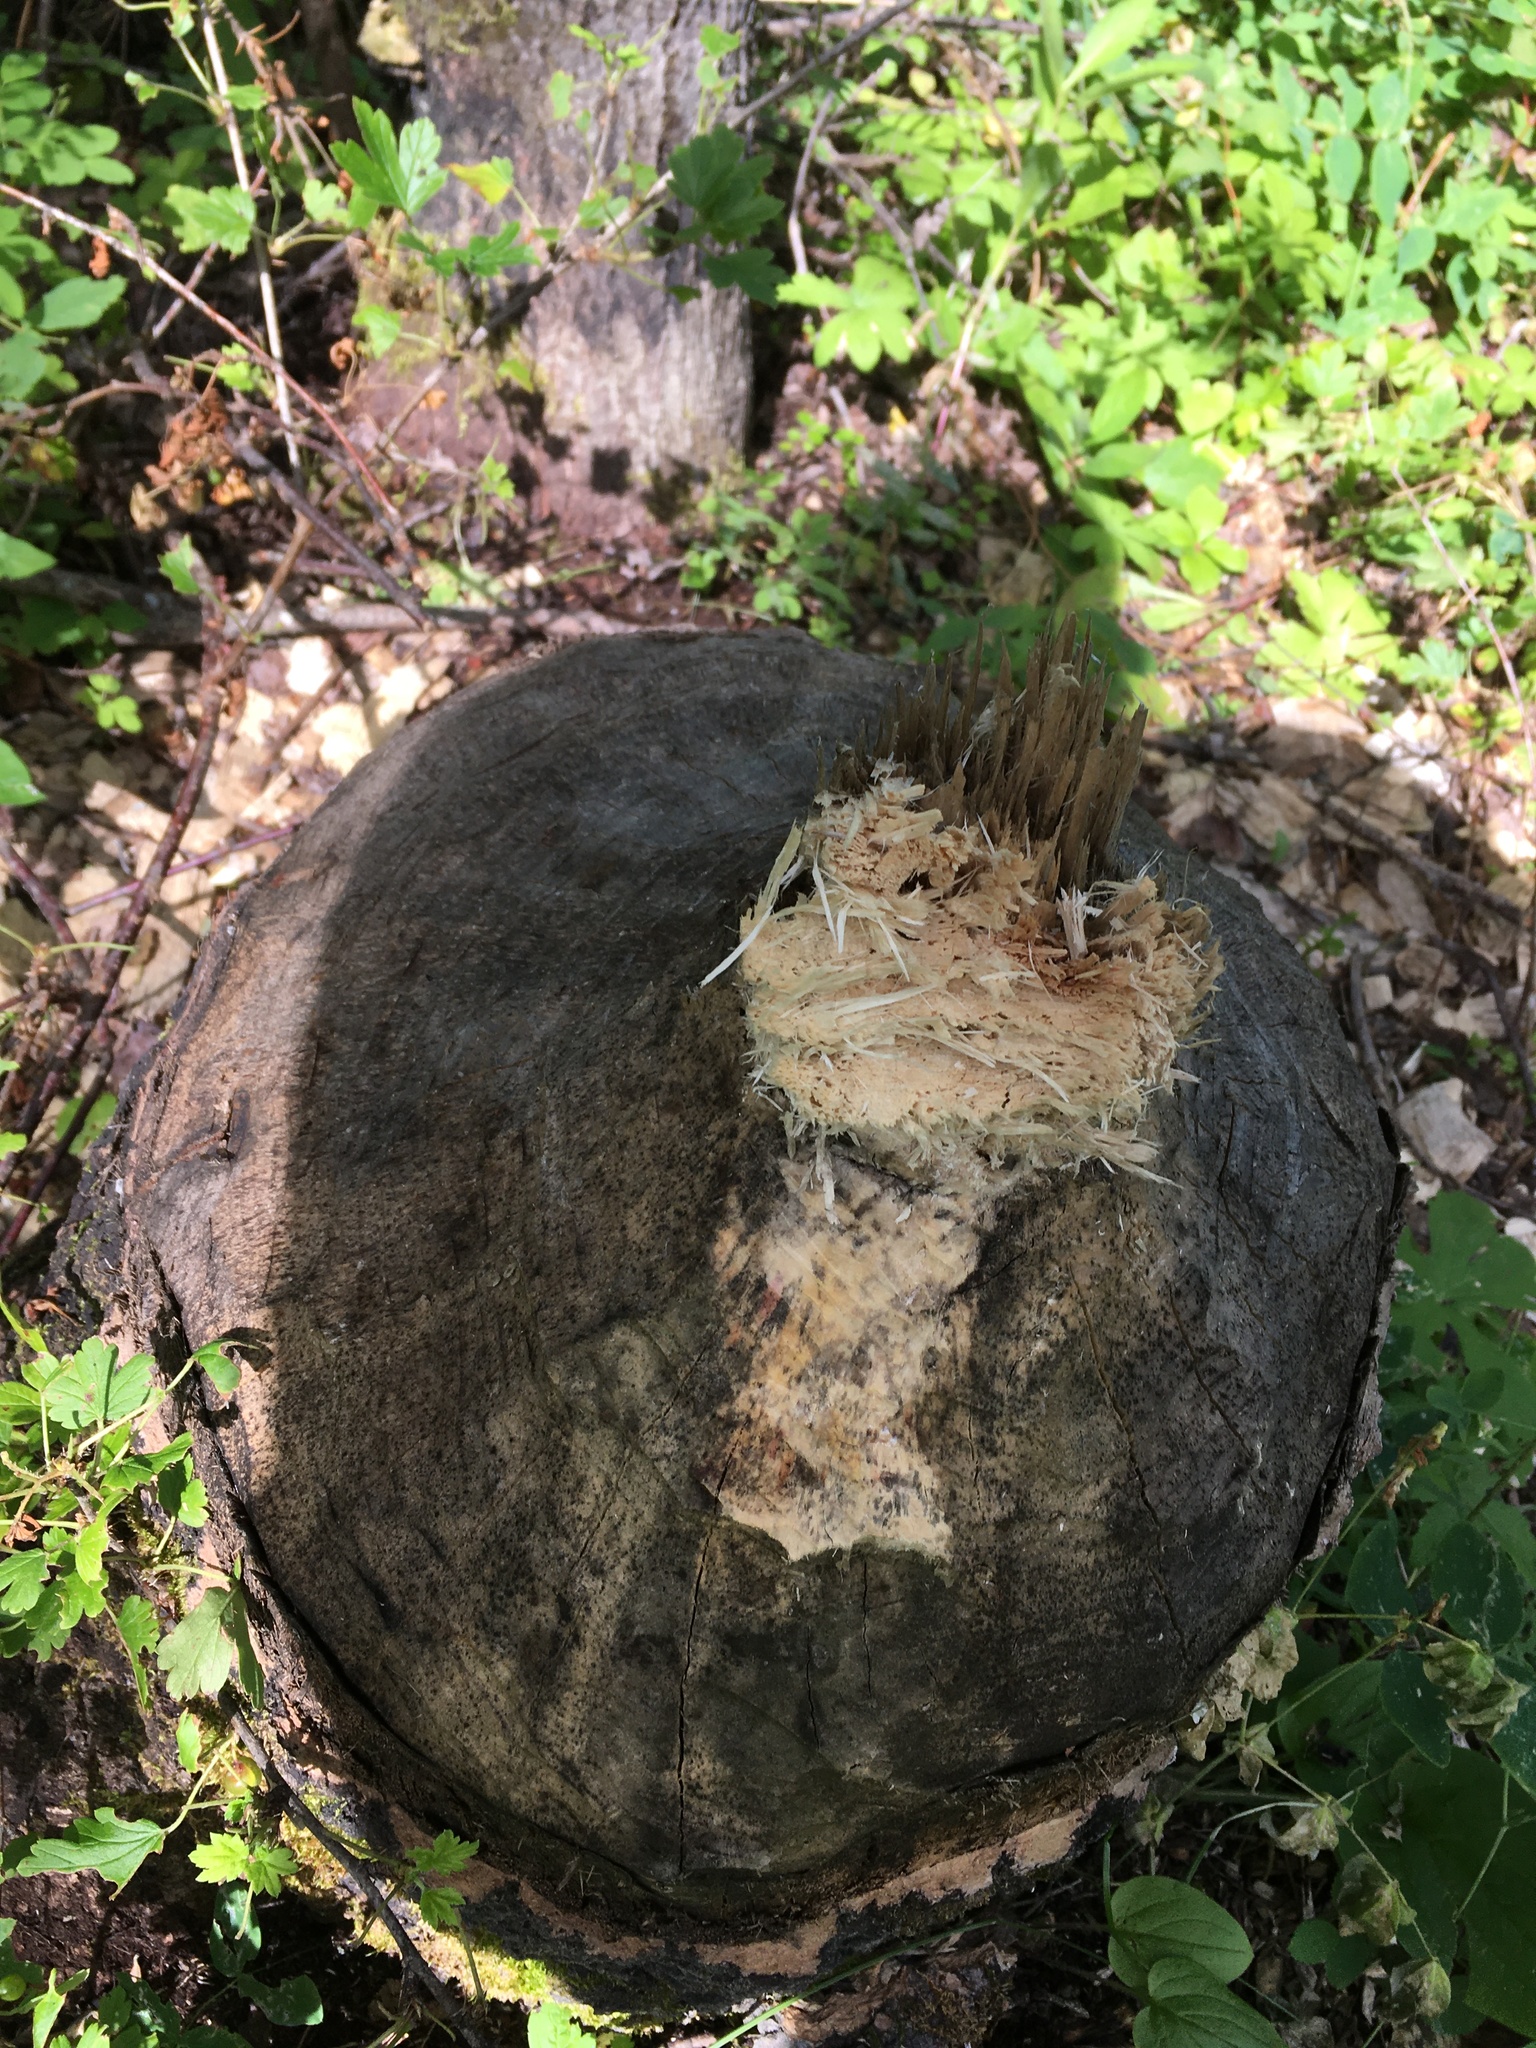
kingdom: Animalia
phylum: Chordata
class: Mammalia
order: Rodentia
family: Castoridae
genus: Castor
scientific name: Castor canadensis
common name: American beaver
